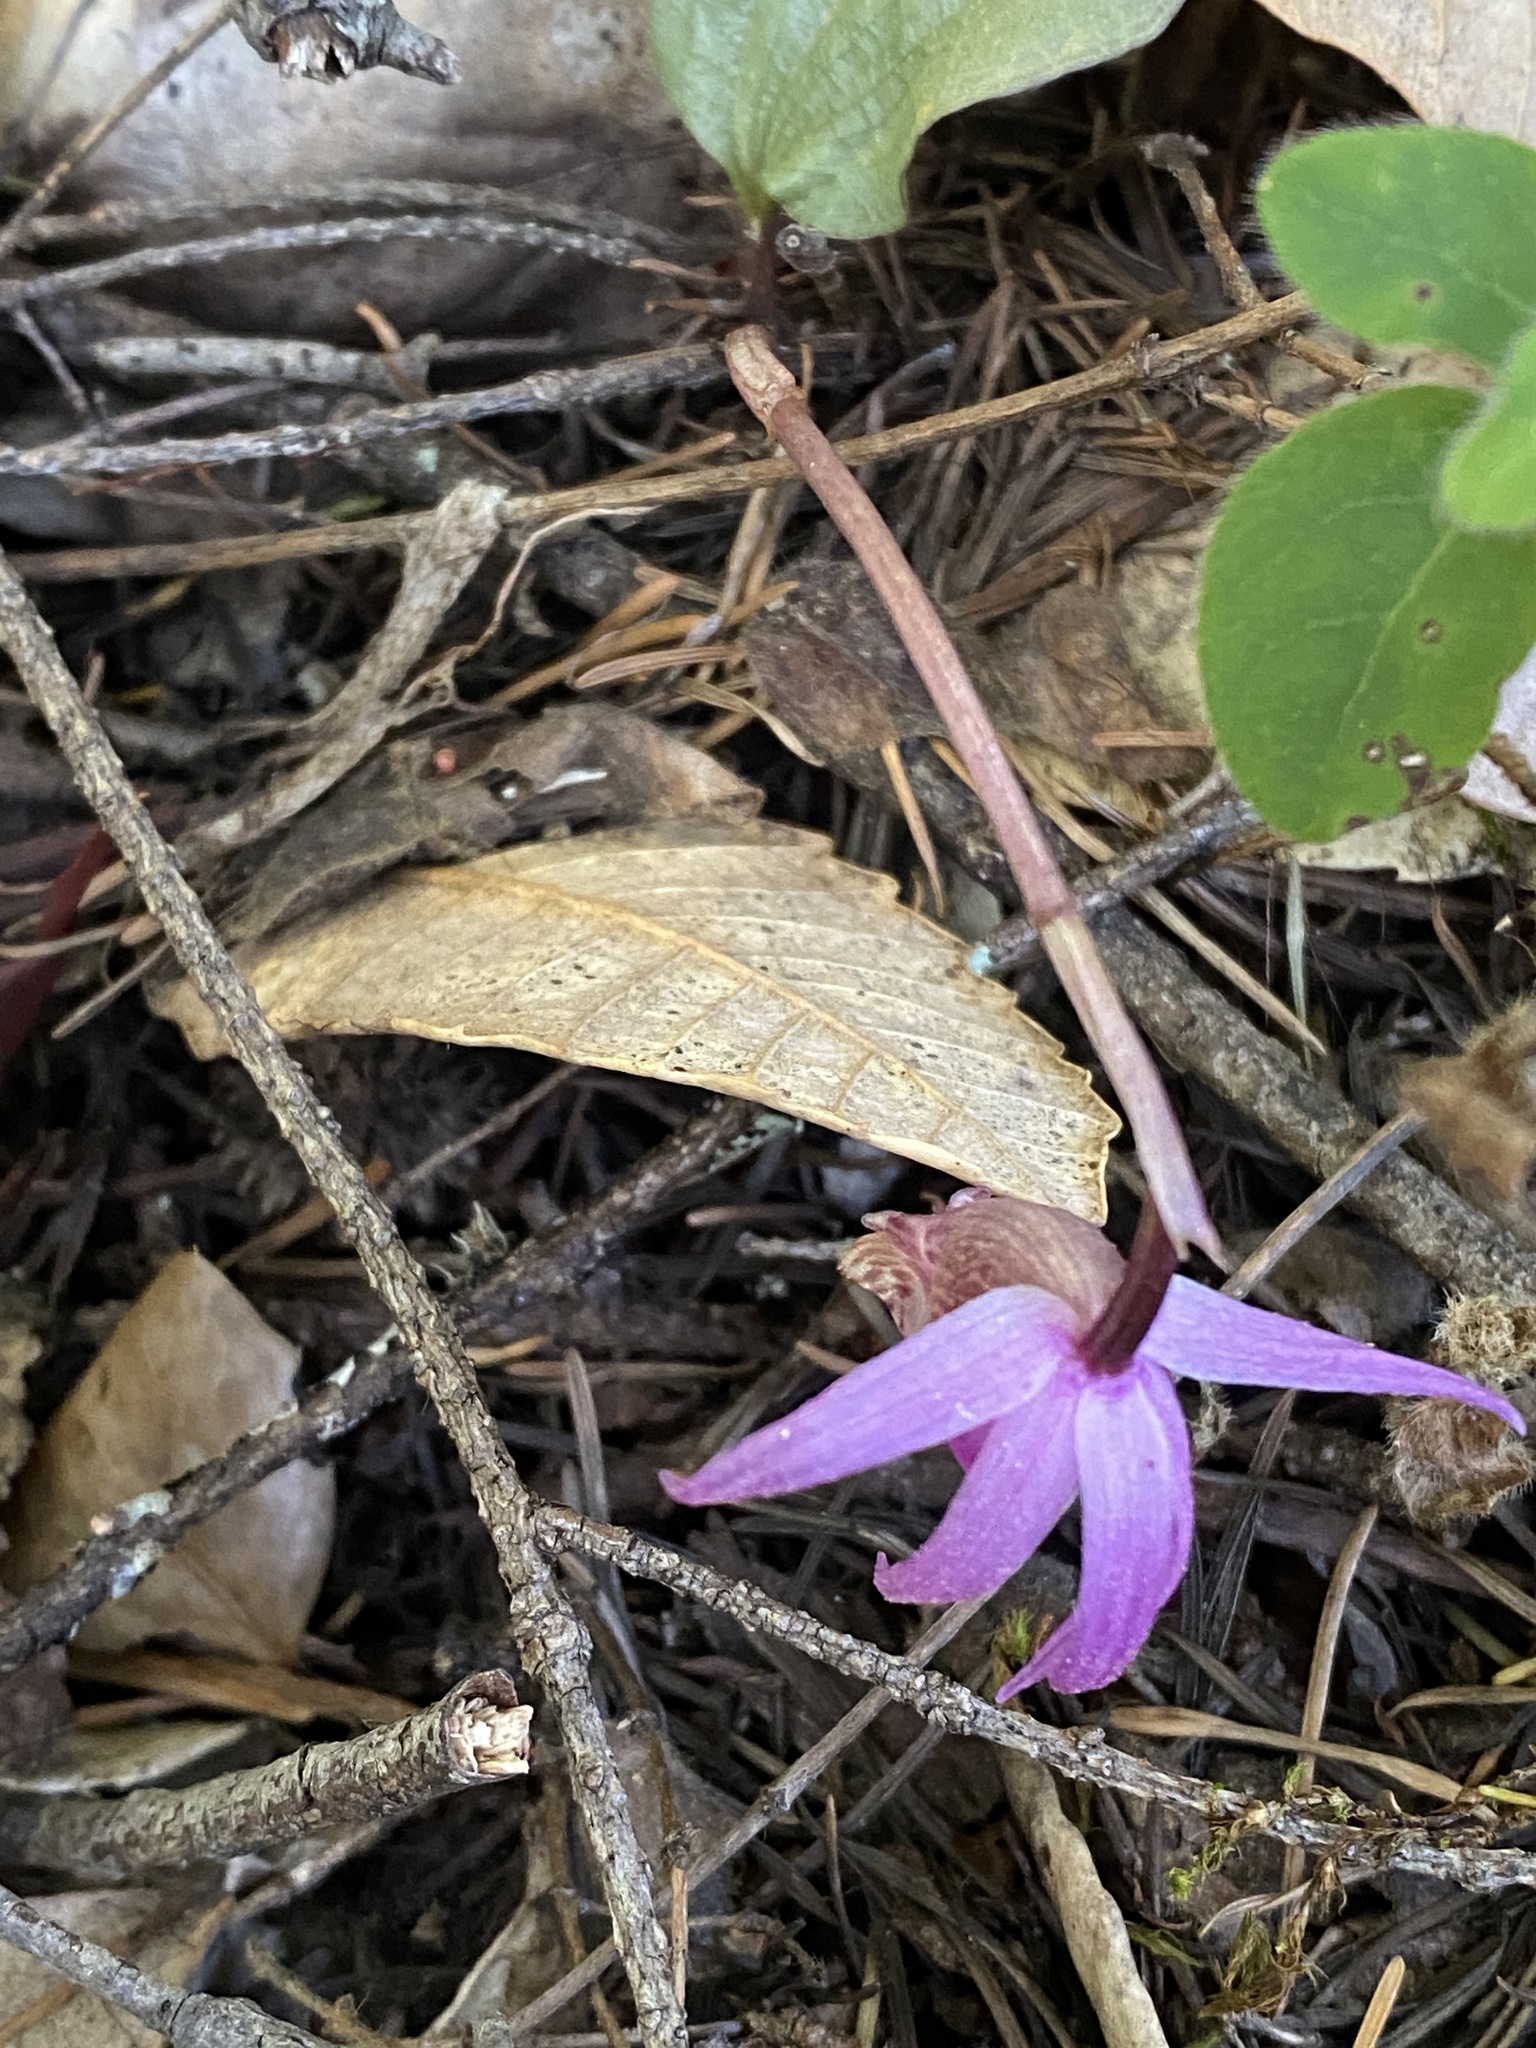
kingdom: Plantae
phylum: Tracheophyta
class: Liliopsida
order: Asparagales
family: Orchidaceae
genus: Calypso
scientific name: Calypso bulbosa
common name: Calypso
